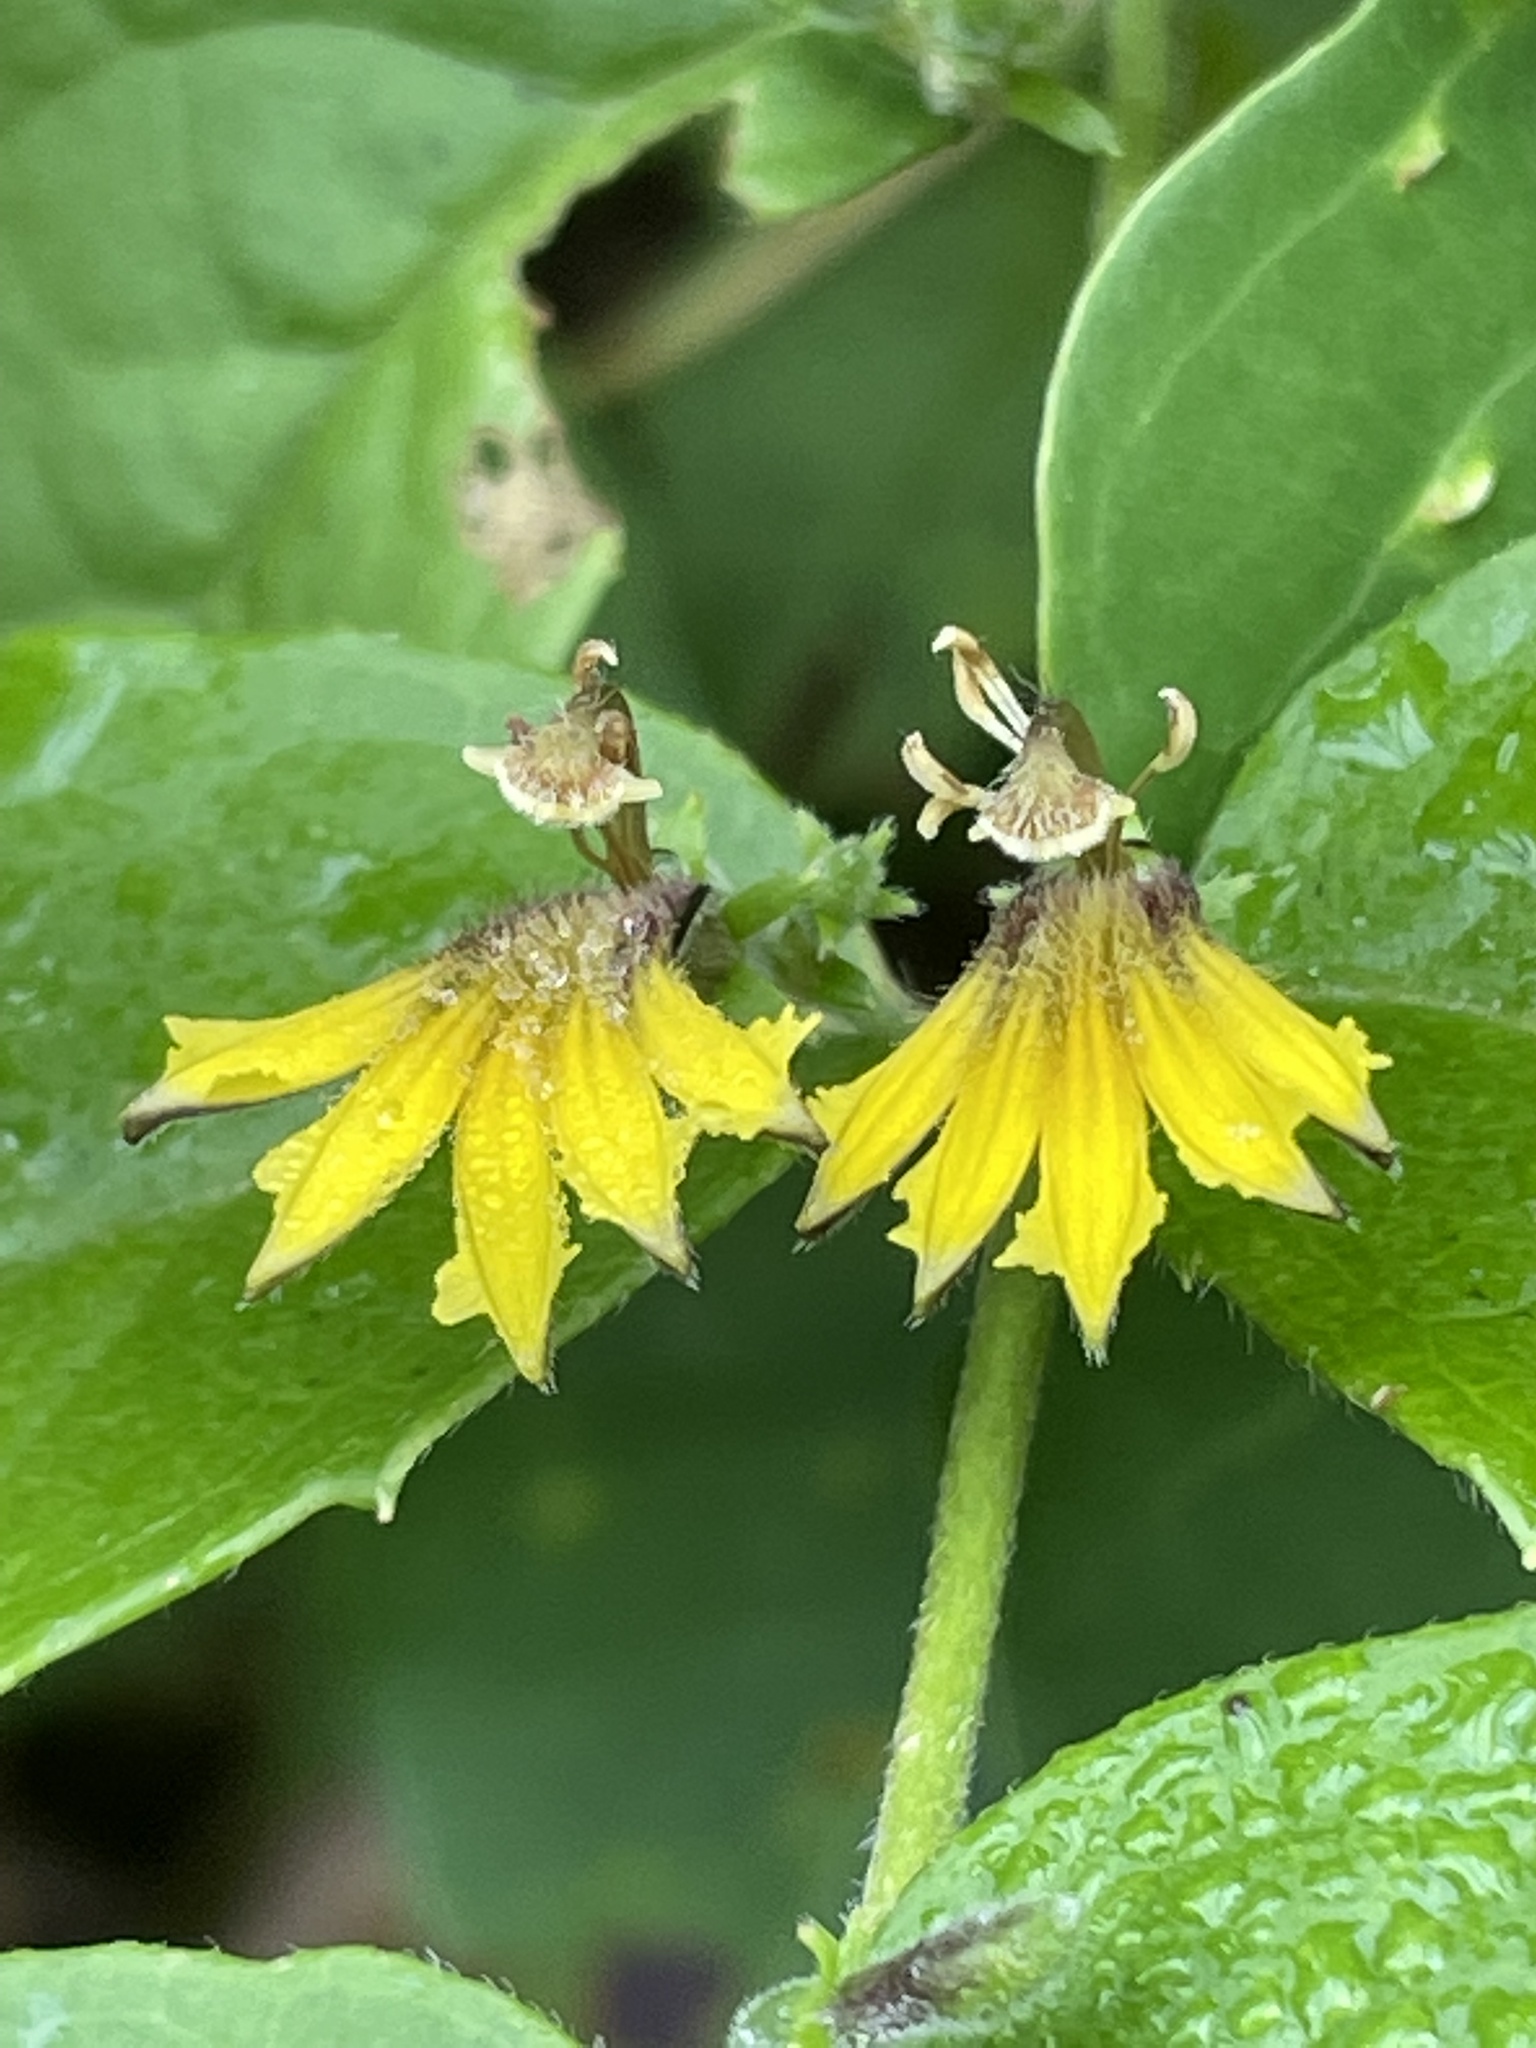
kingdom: Plantae
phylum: Tracheophyta
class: Magnoliopsida
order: Asterales
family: Goodeniaceae
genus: Scaevola
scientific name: Scaevola oppositifolia
